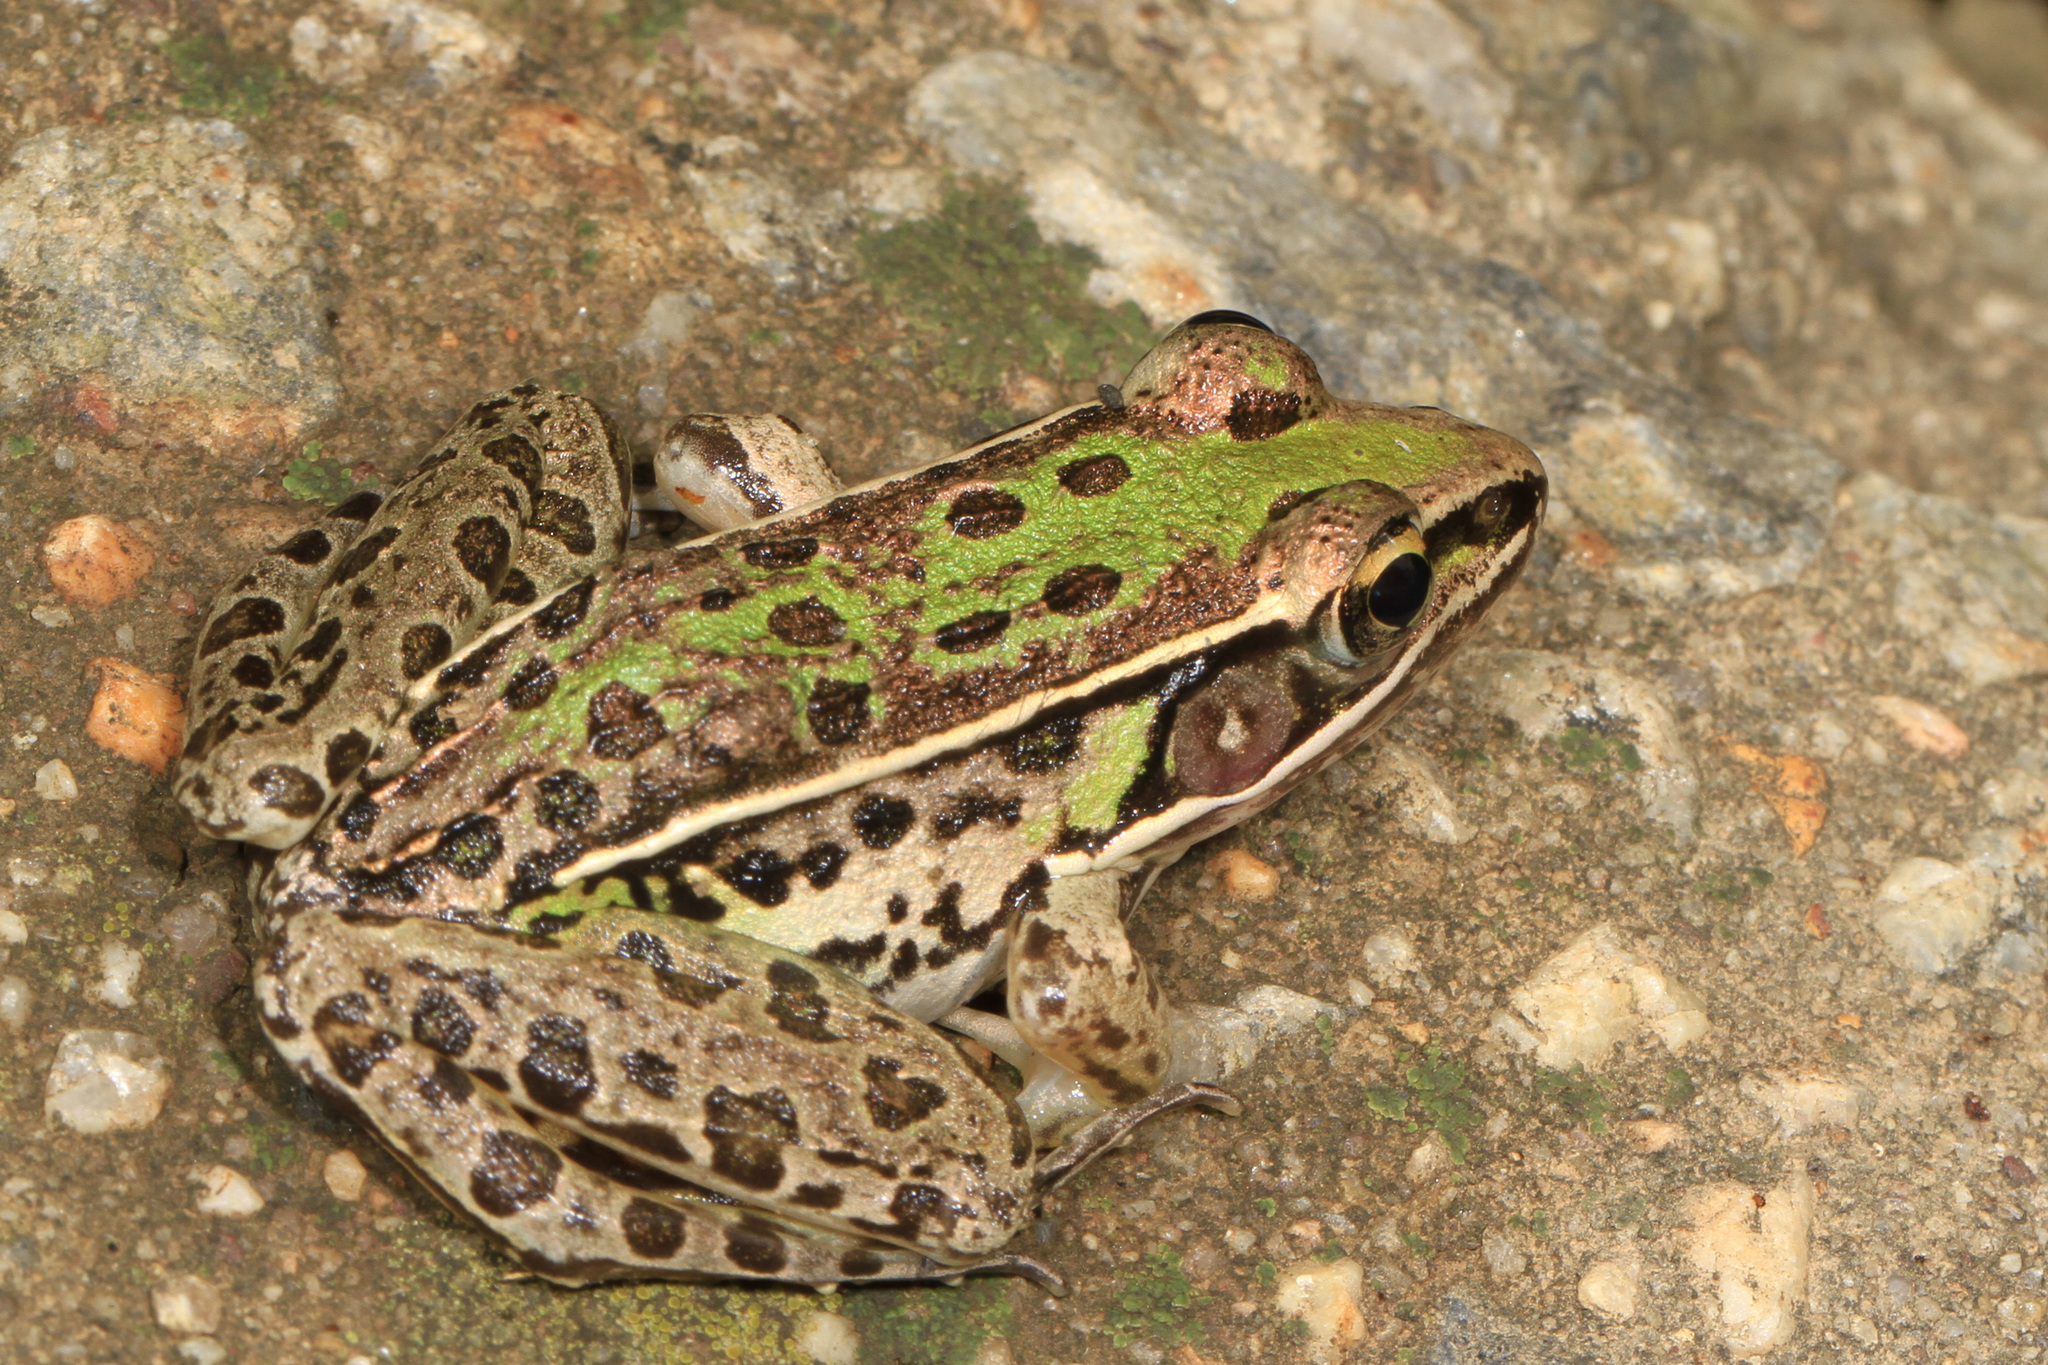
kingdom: Animalia
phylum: Chordata
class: Amphibia
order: Anura
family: Ranidae
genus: Lithobates
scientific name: Lithobates sphenocephalus
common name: Southern leopard frog
